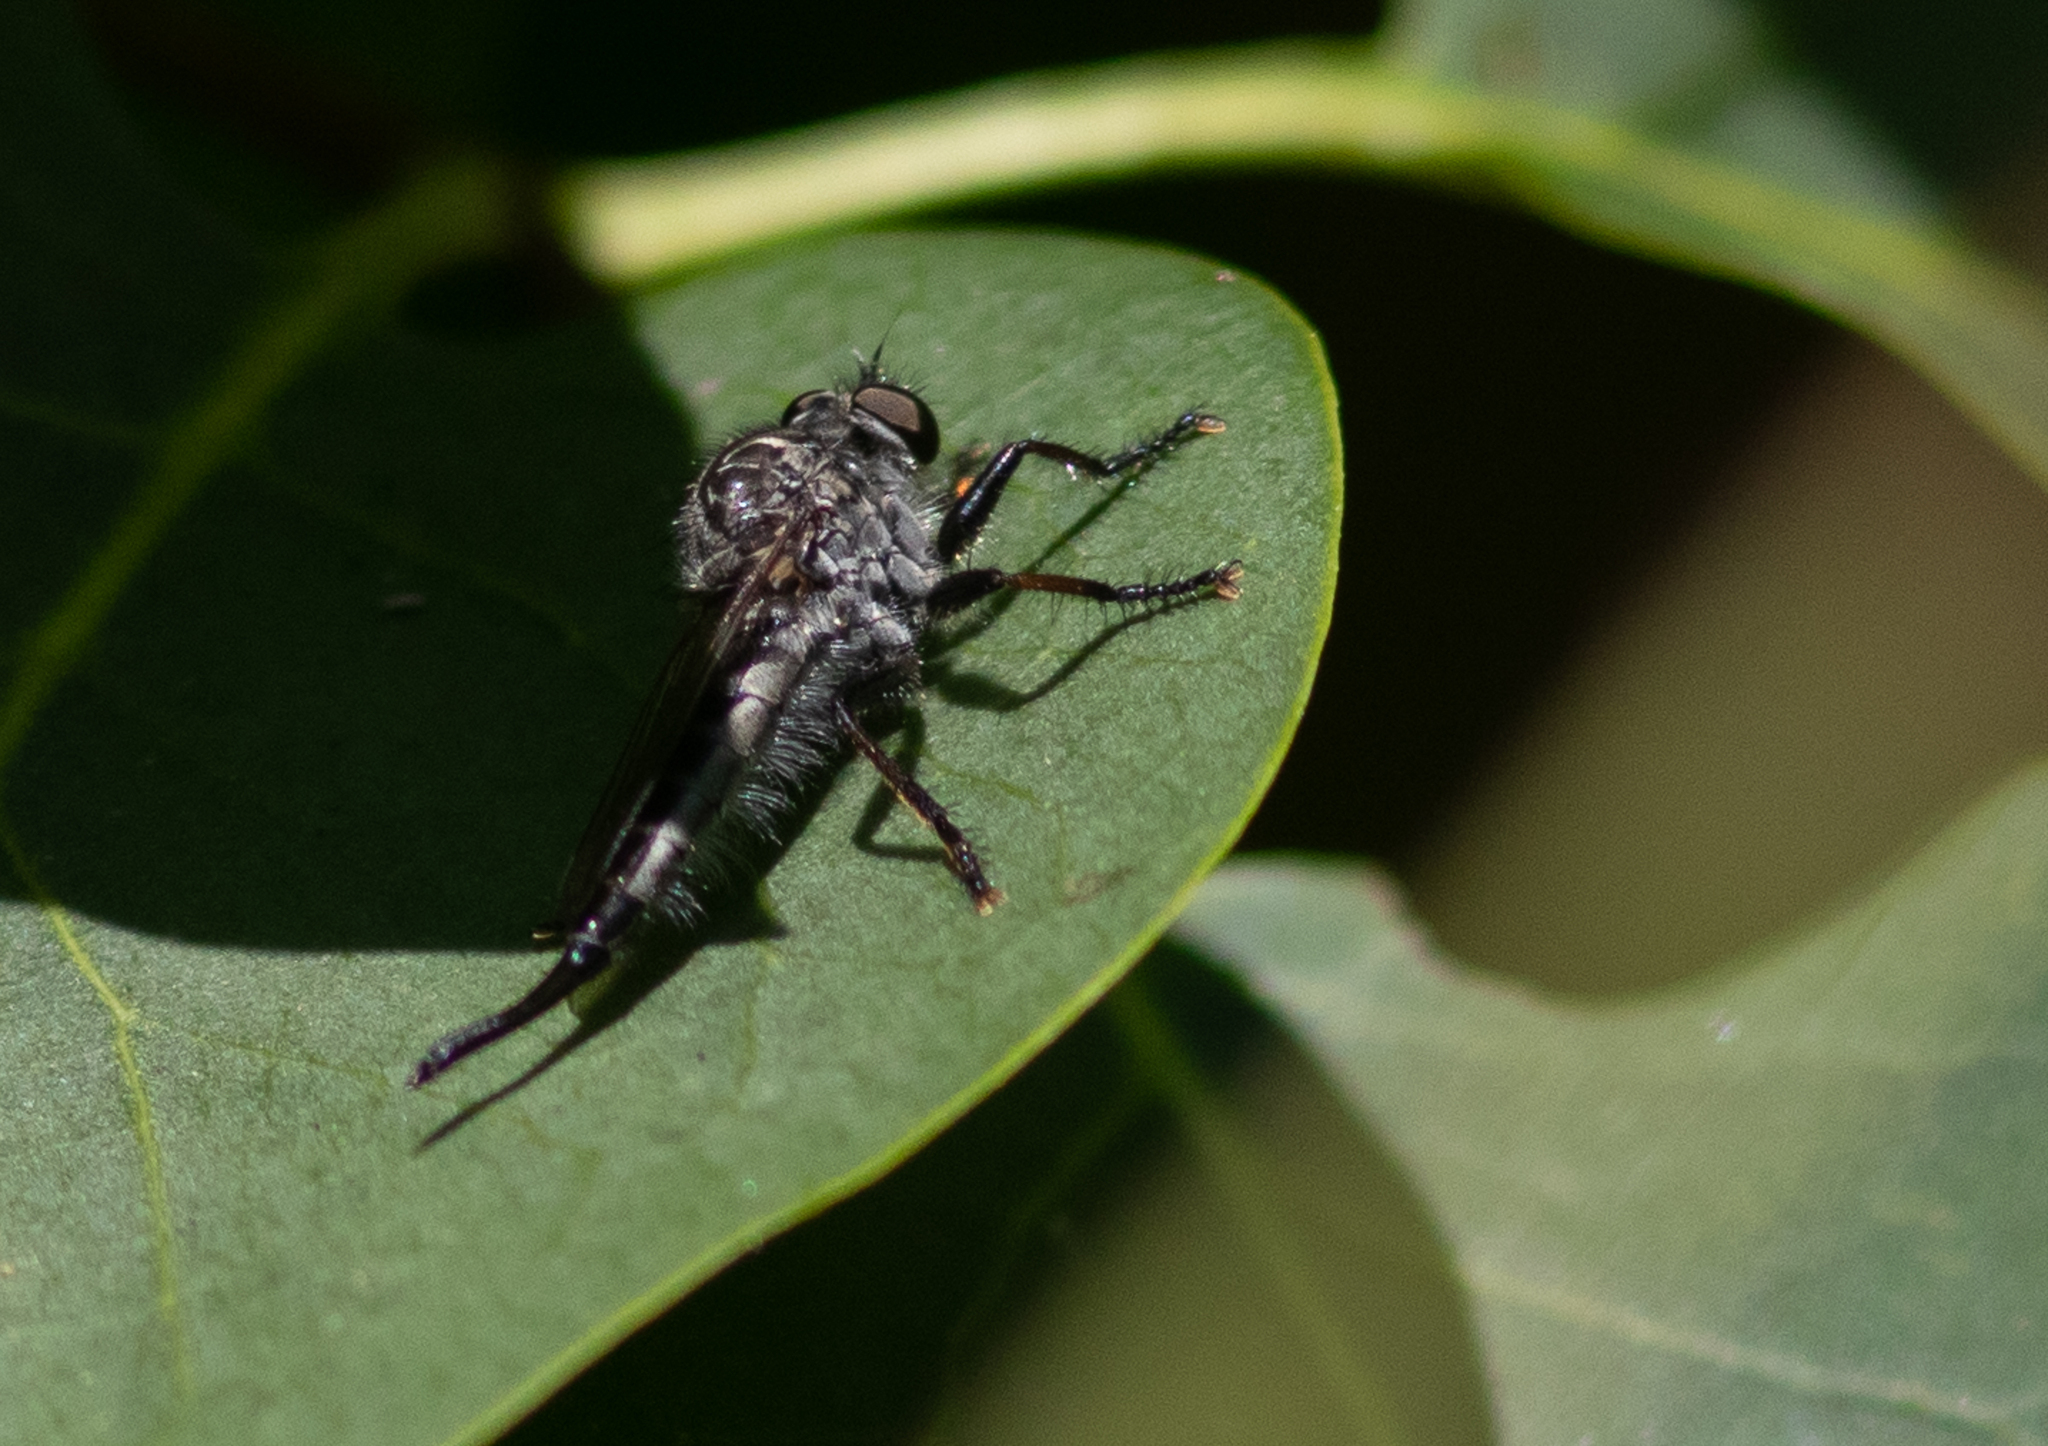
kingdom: Animalia
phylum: Arthropoda
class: Insecta
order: Diptera
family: Asilidae
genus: Efferia
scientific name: Efferia aestuans
